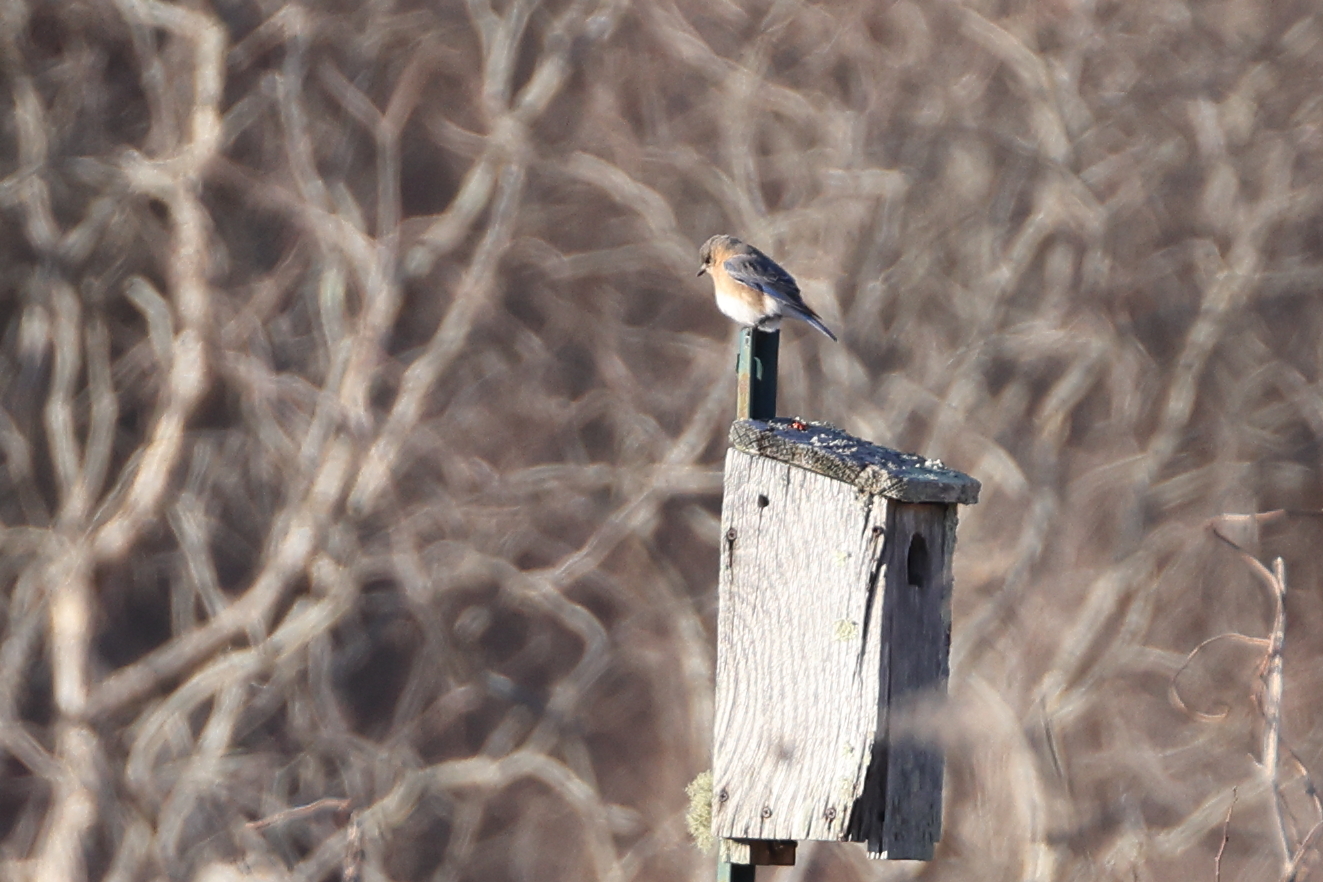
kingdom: Animalia
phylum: Chordata
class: Aves
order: Passeriformes
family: Turdidae
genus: Sialia
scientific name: Sialia sialis
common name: Eastern bluebird
